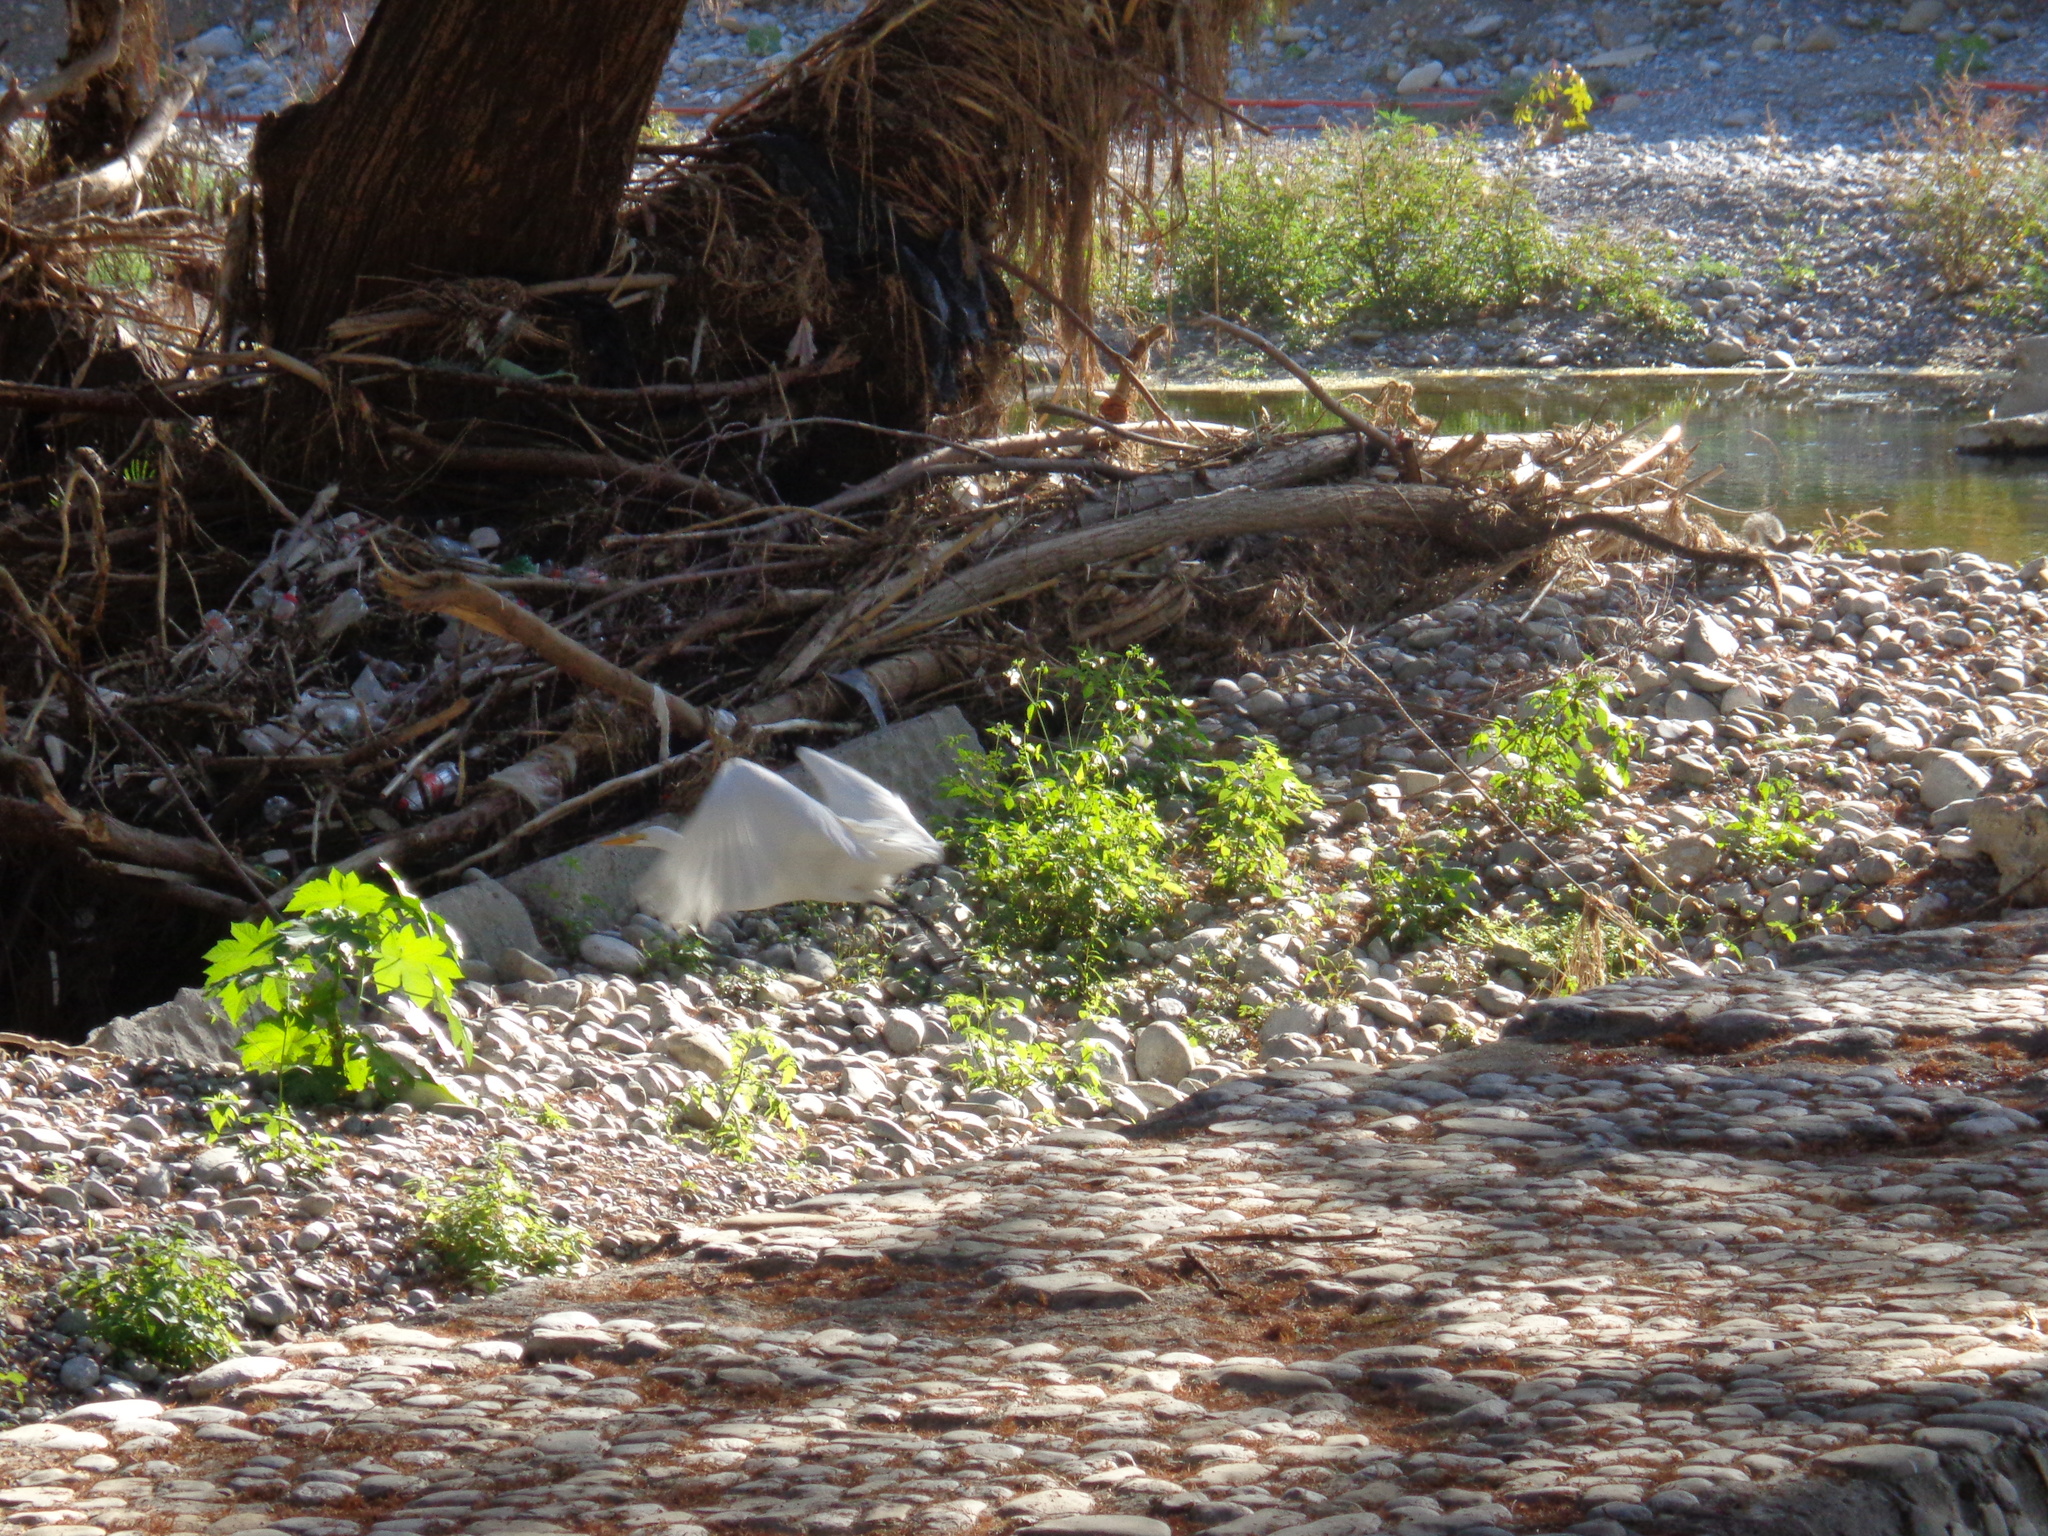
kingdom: Animalia
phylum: Chordata
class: Aves
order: Pelecaniformes
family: Ardeidae
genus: Ardea
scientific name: Ardea alba
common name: Great egret
